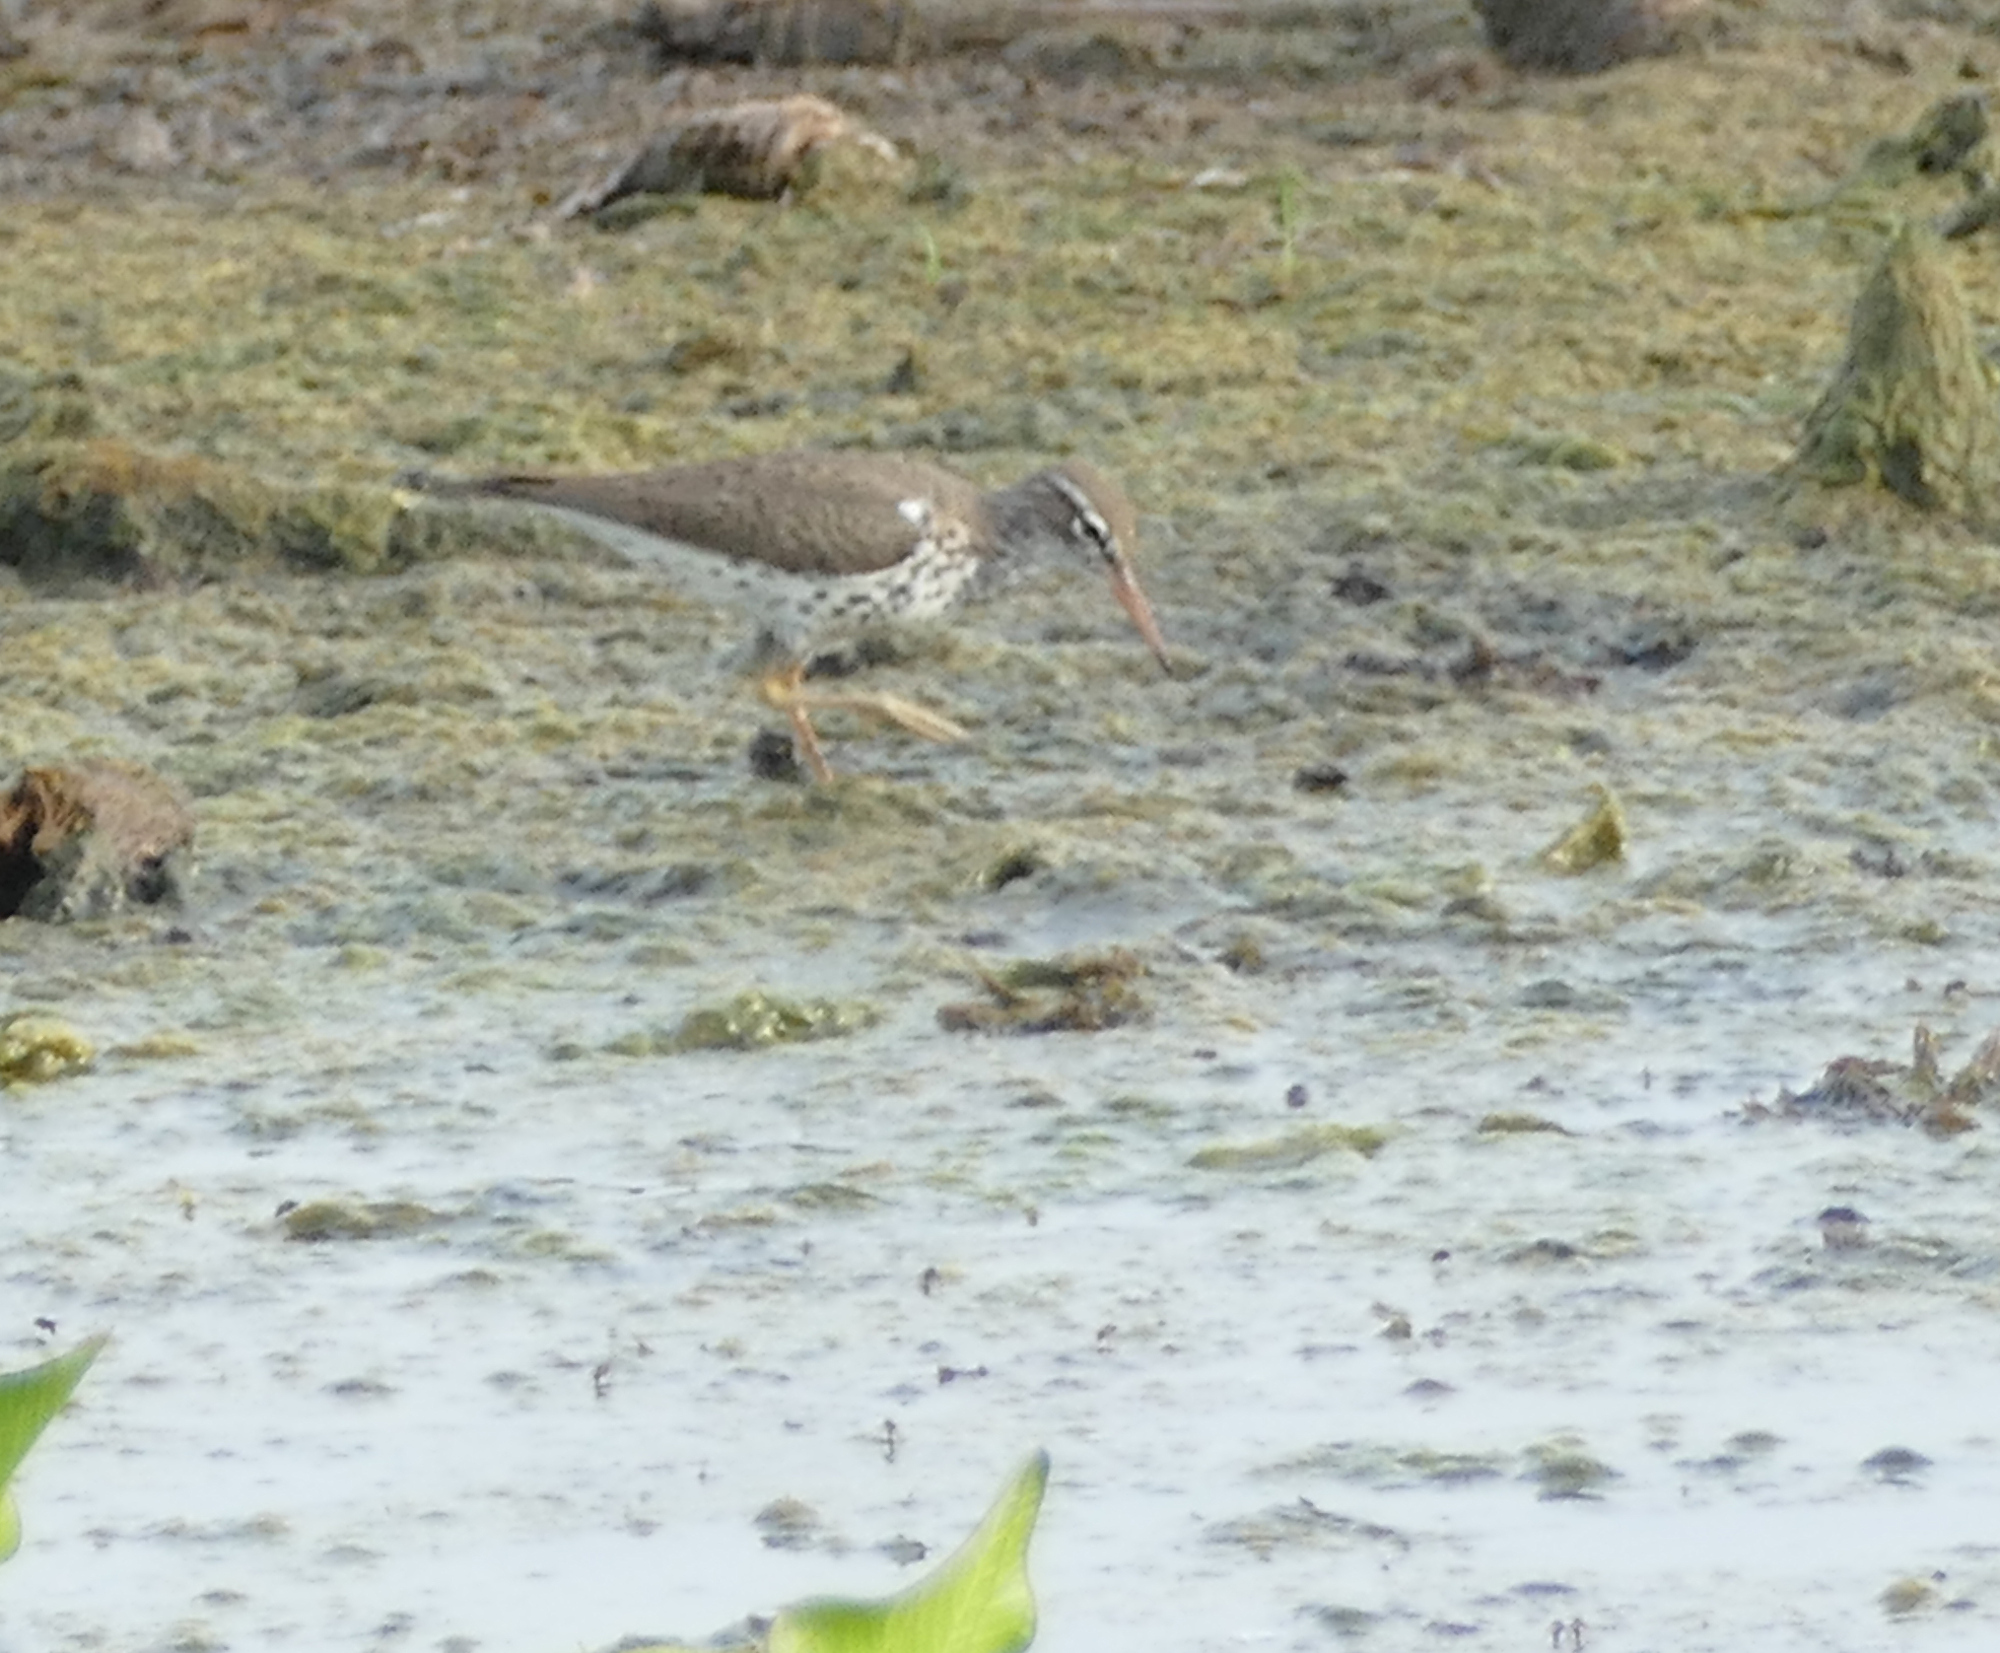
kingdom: Animalia
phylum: Chordata
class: Aves
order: Charadriiformes
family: Scolopacidae
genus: Actitis
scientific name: Actitis macularius
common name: Spotted sandpiper
